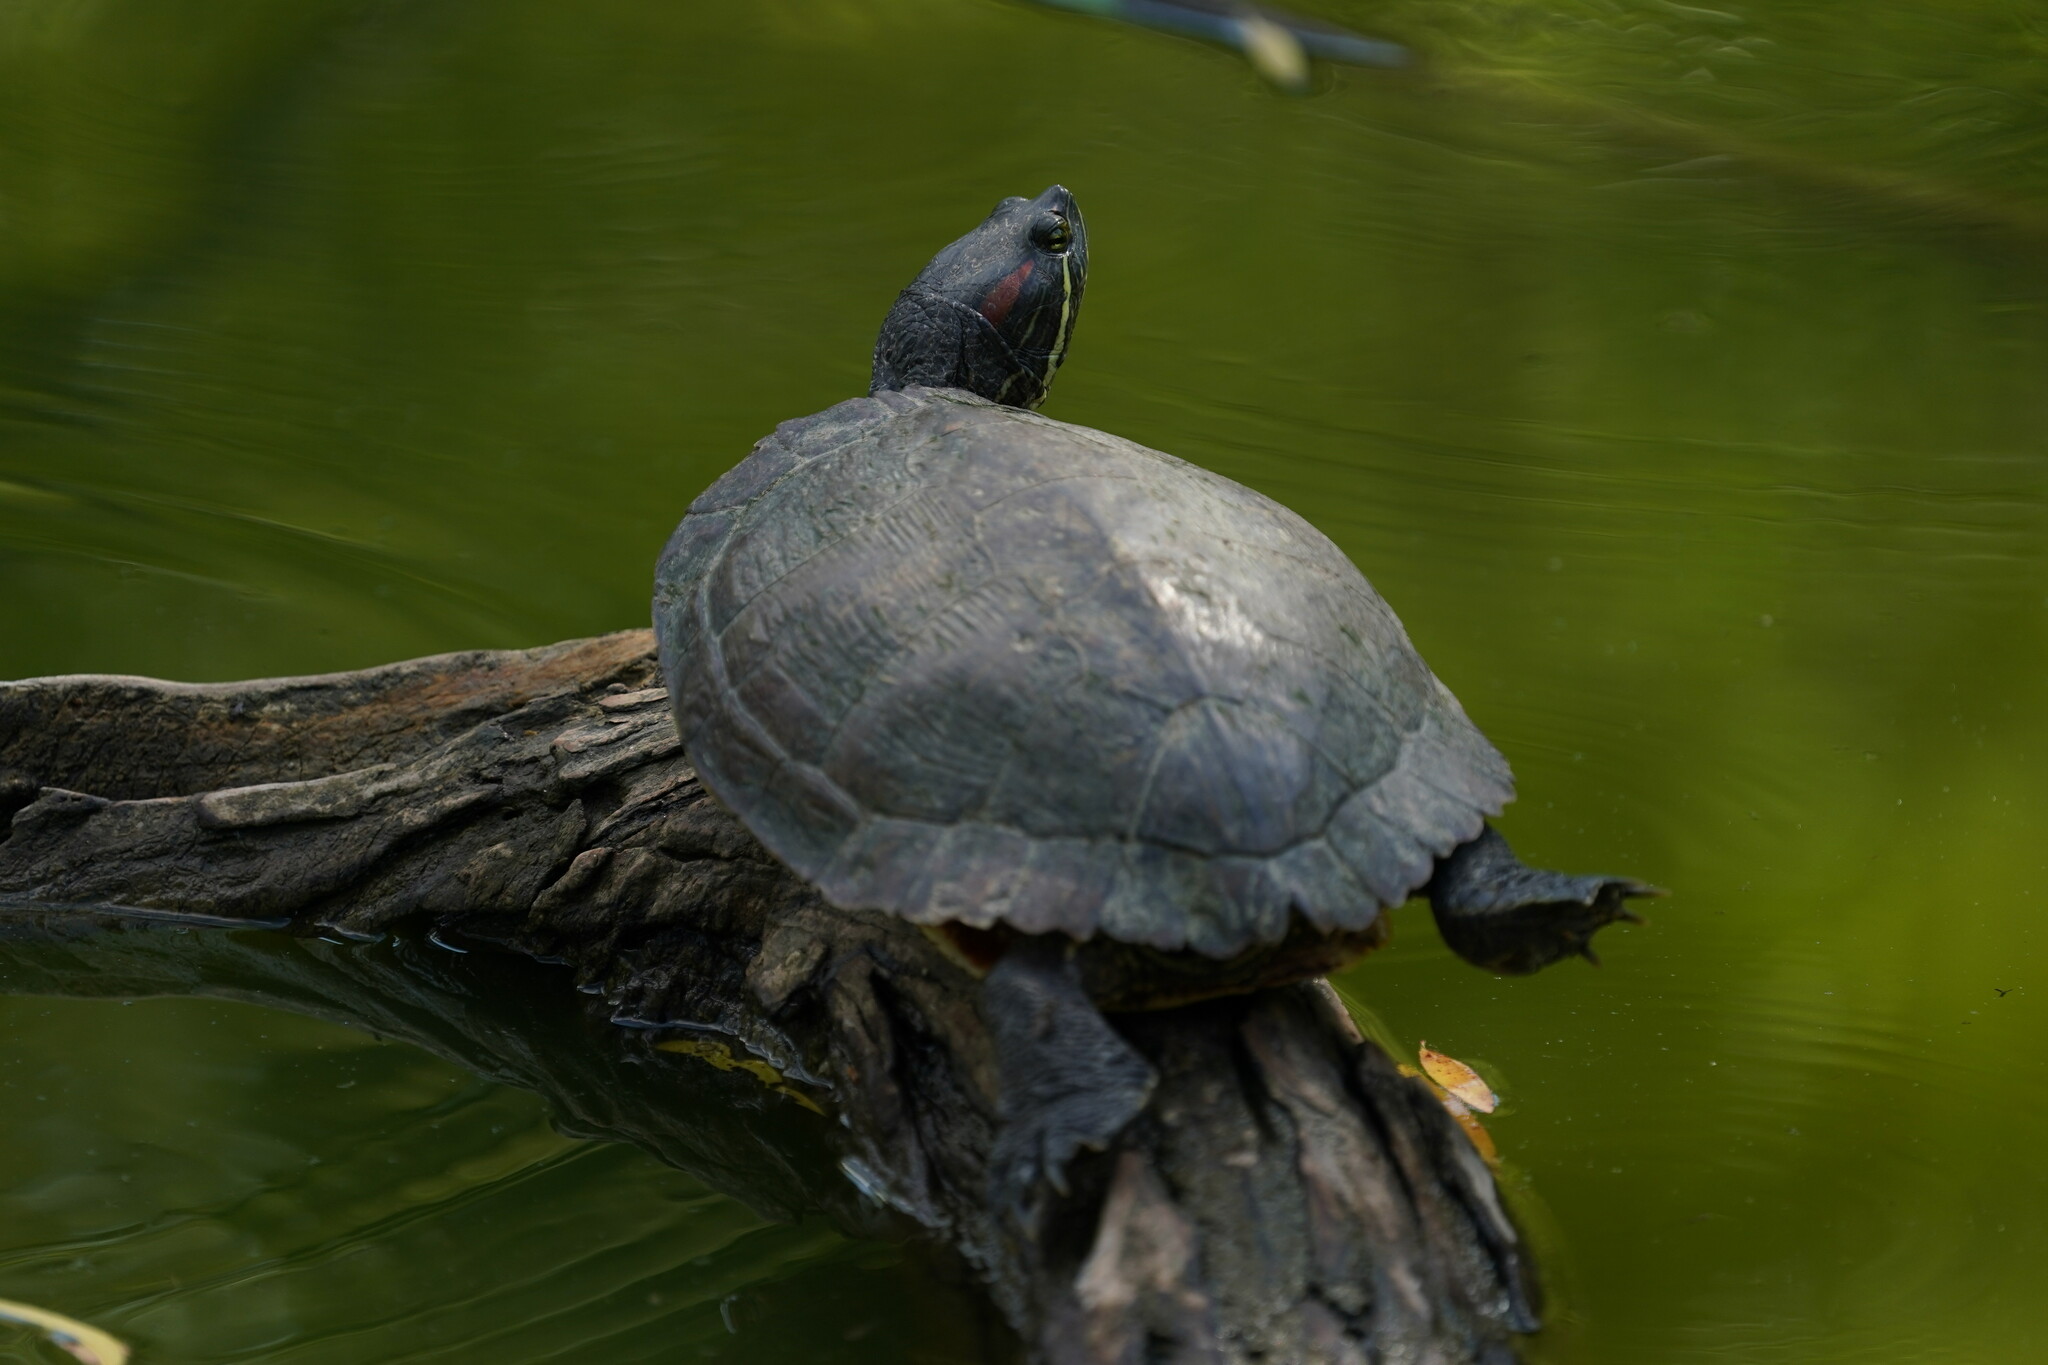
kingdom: Animalia
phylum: Chordata
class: Testudines
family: Emydidae
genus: Trachemys
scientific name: Trachemys scripta
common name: Slider
